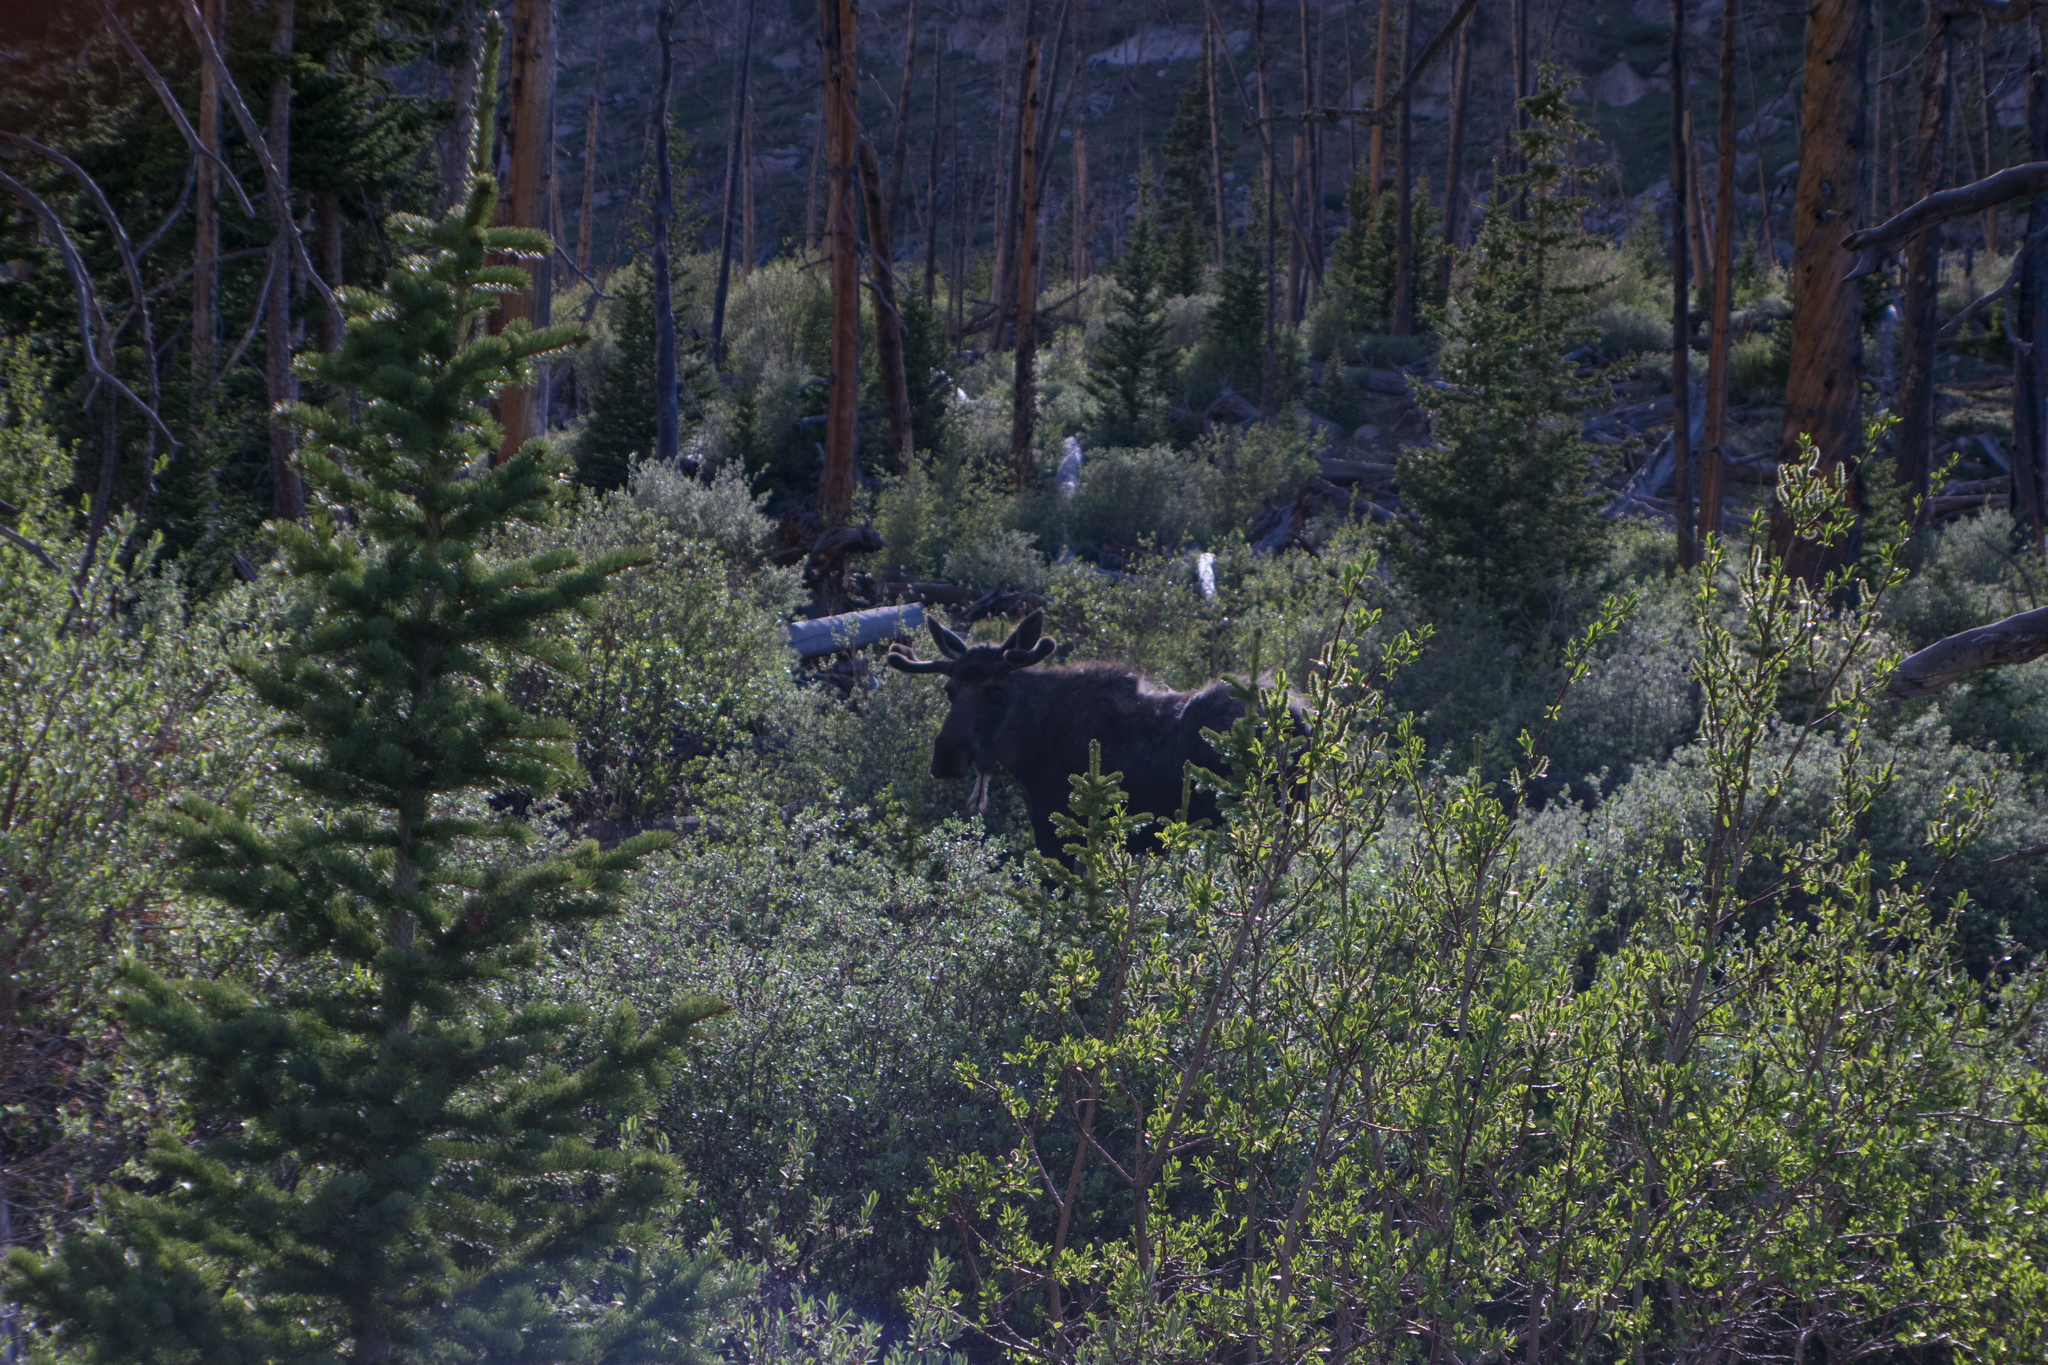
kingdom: Animalia
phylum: Chordata
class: Mammalia
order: Artiodactyla
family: Cervidae
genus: Alces
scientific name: Alces alces
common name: Moose
